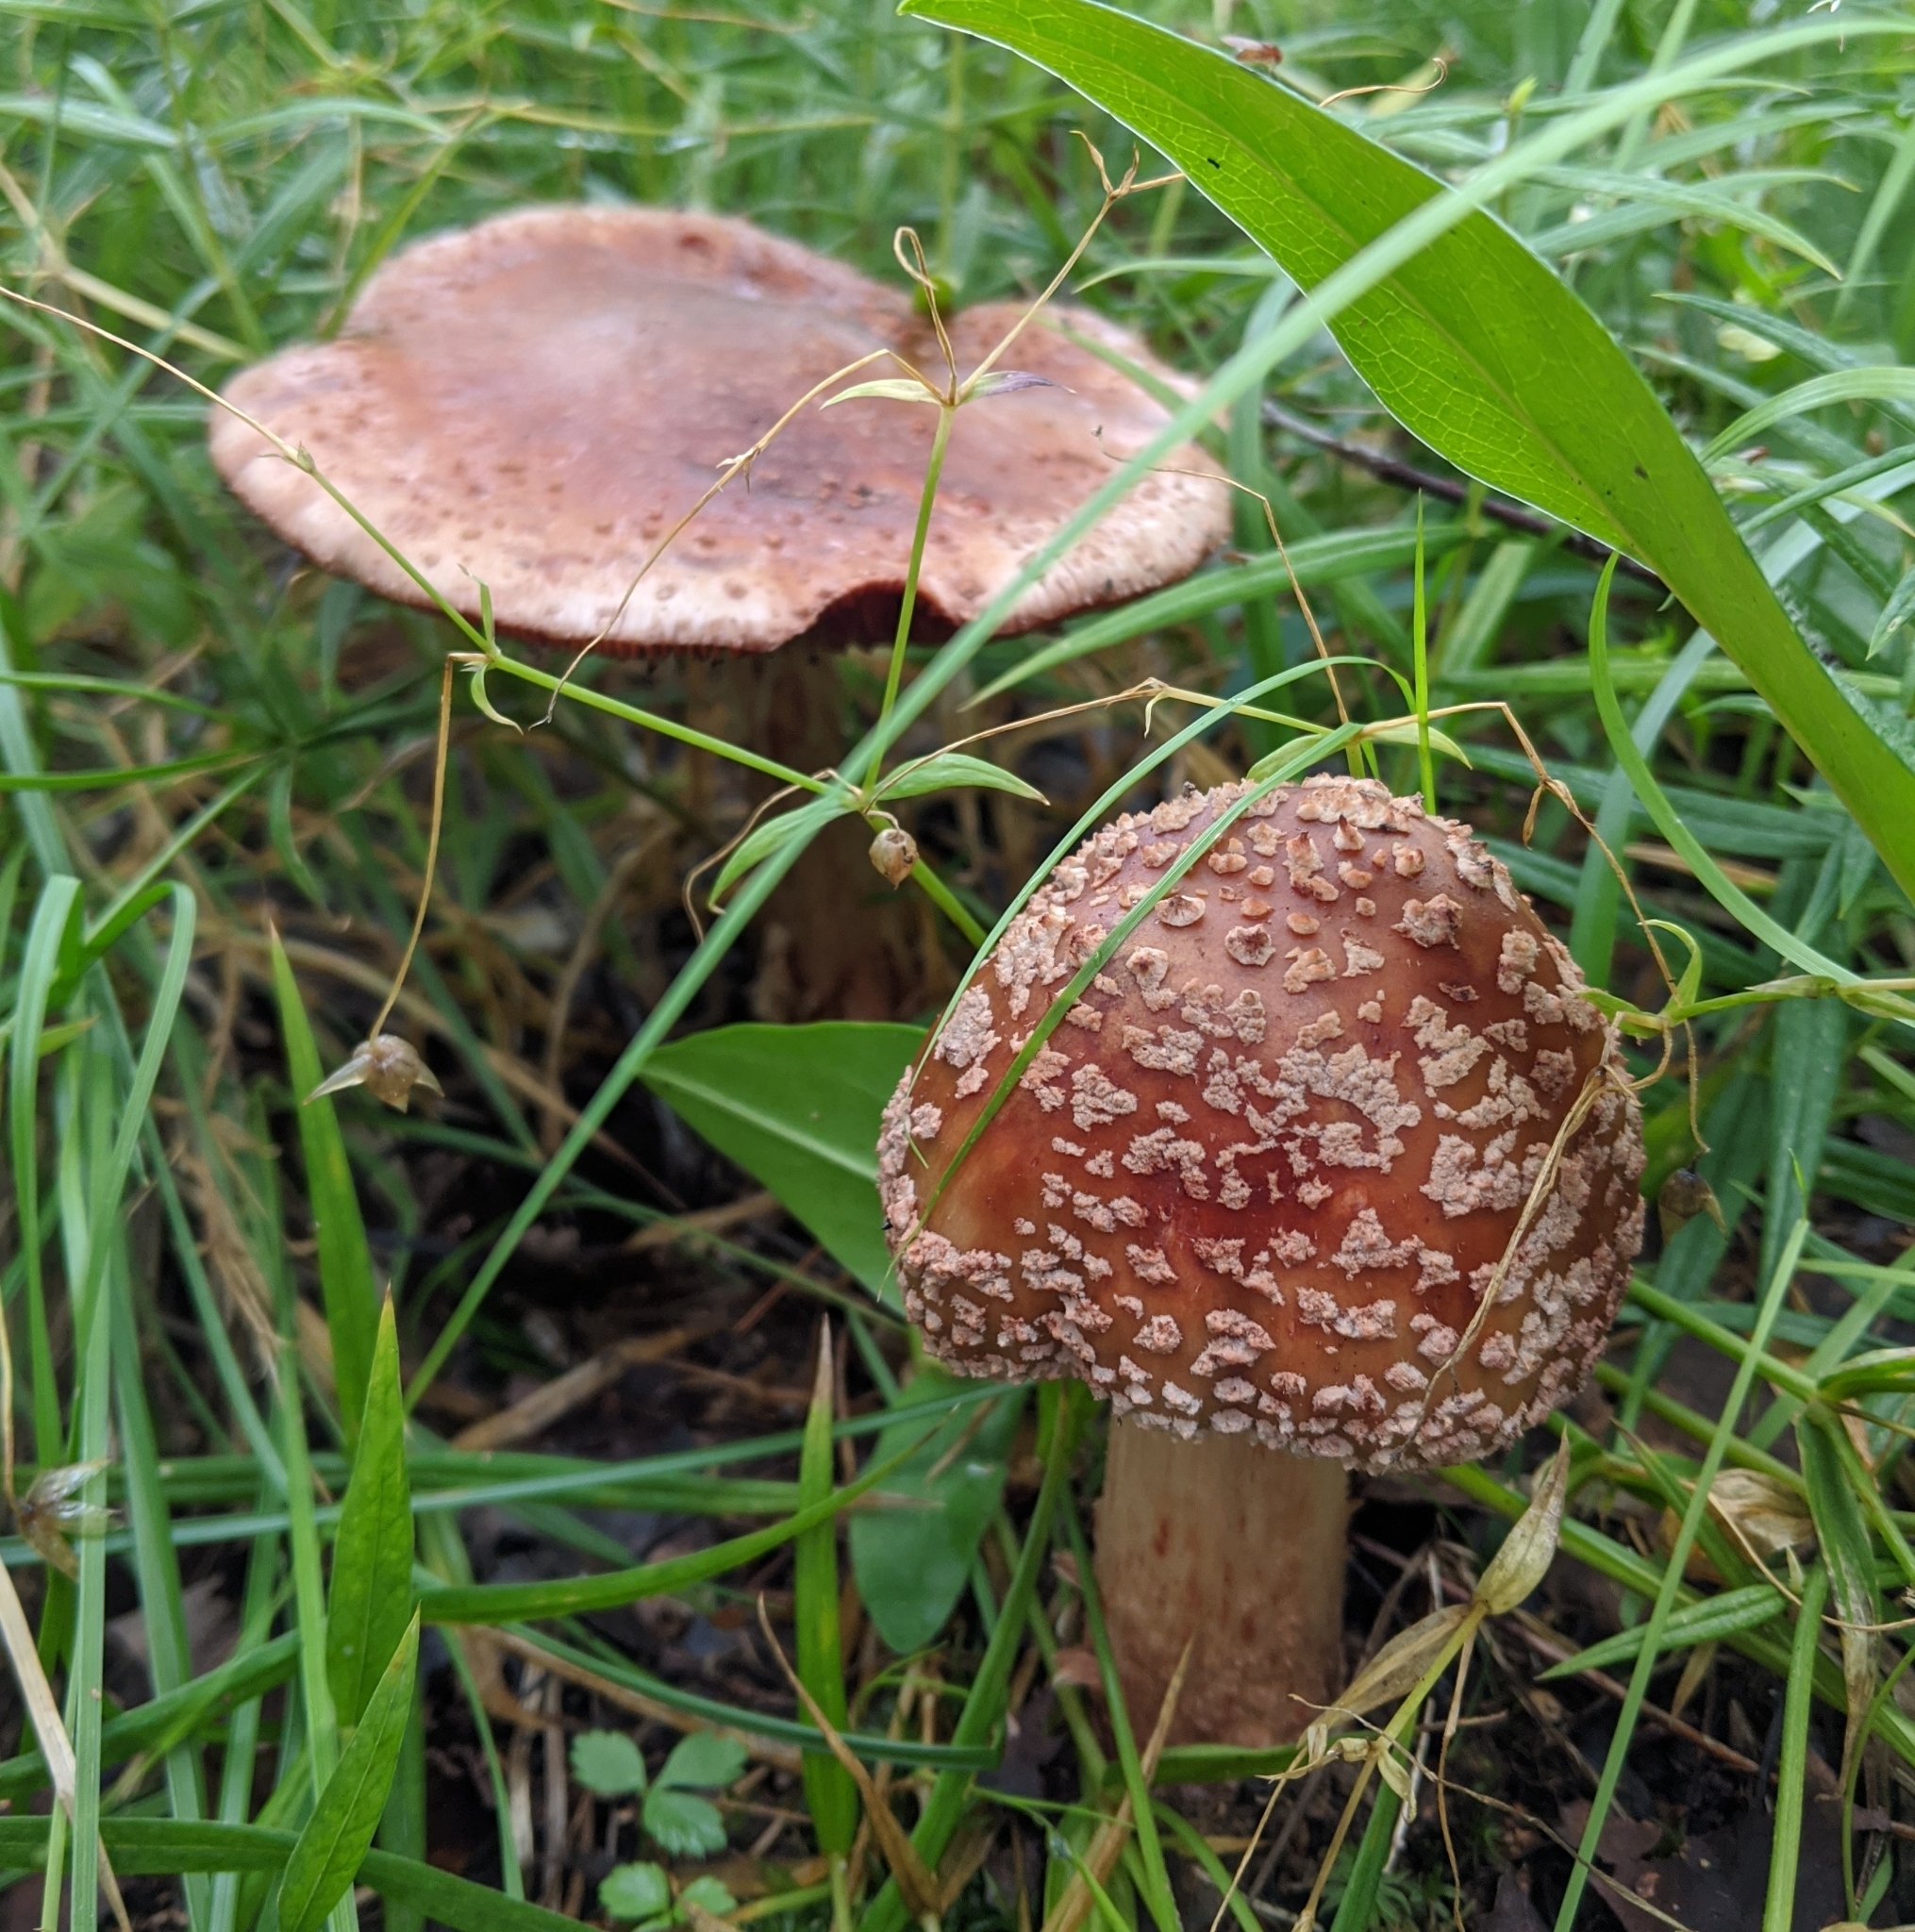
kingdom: Fungi
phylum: Basidiomycota
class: Agaricomycetes
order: Agaricales
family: Amanitaceae
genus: Amanita
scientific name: Amanita rubescens
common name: Blusher
